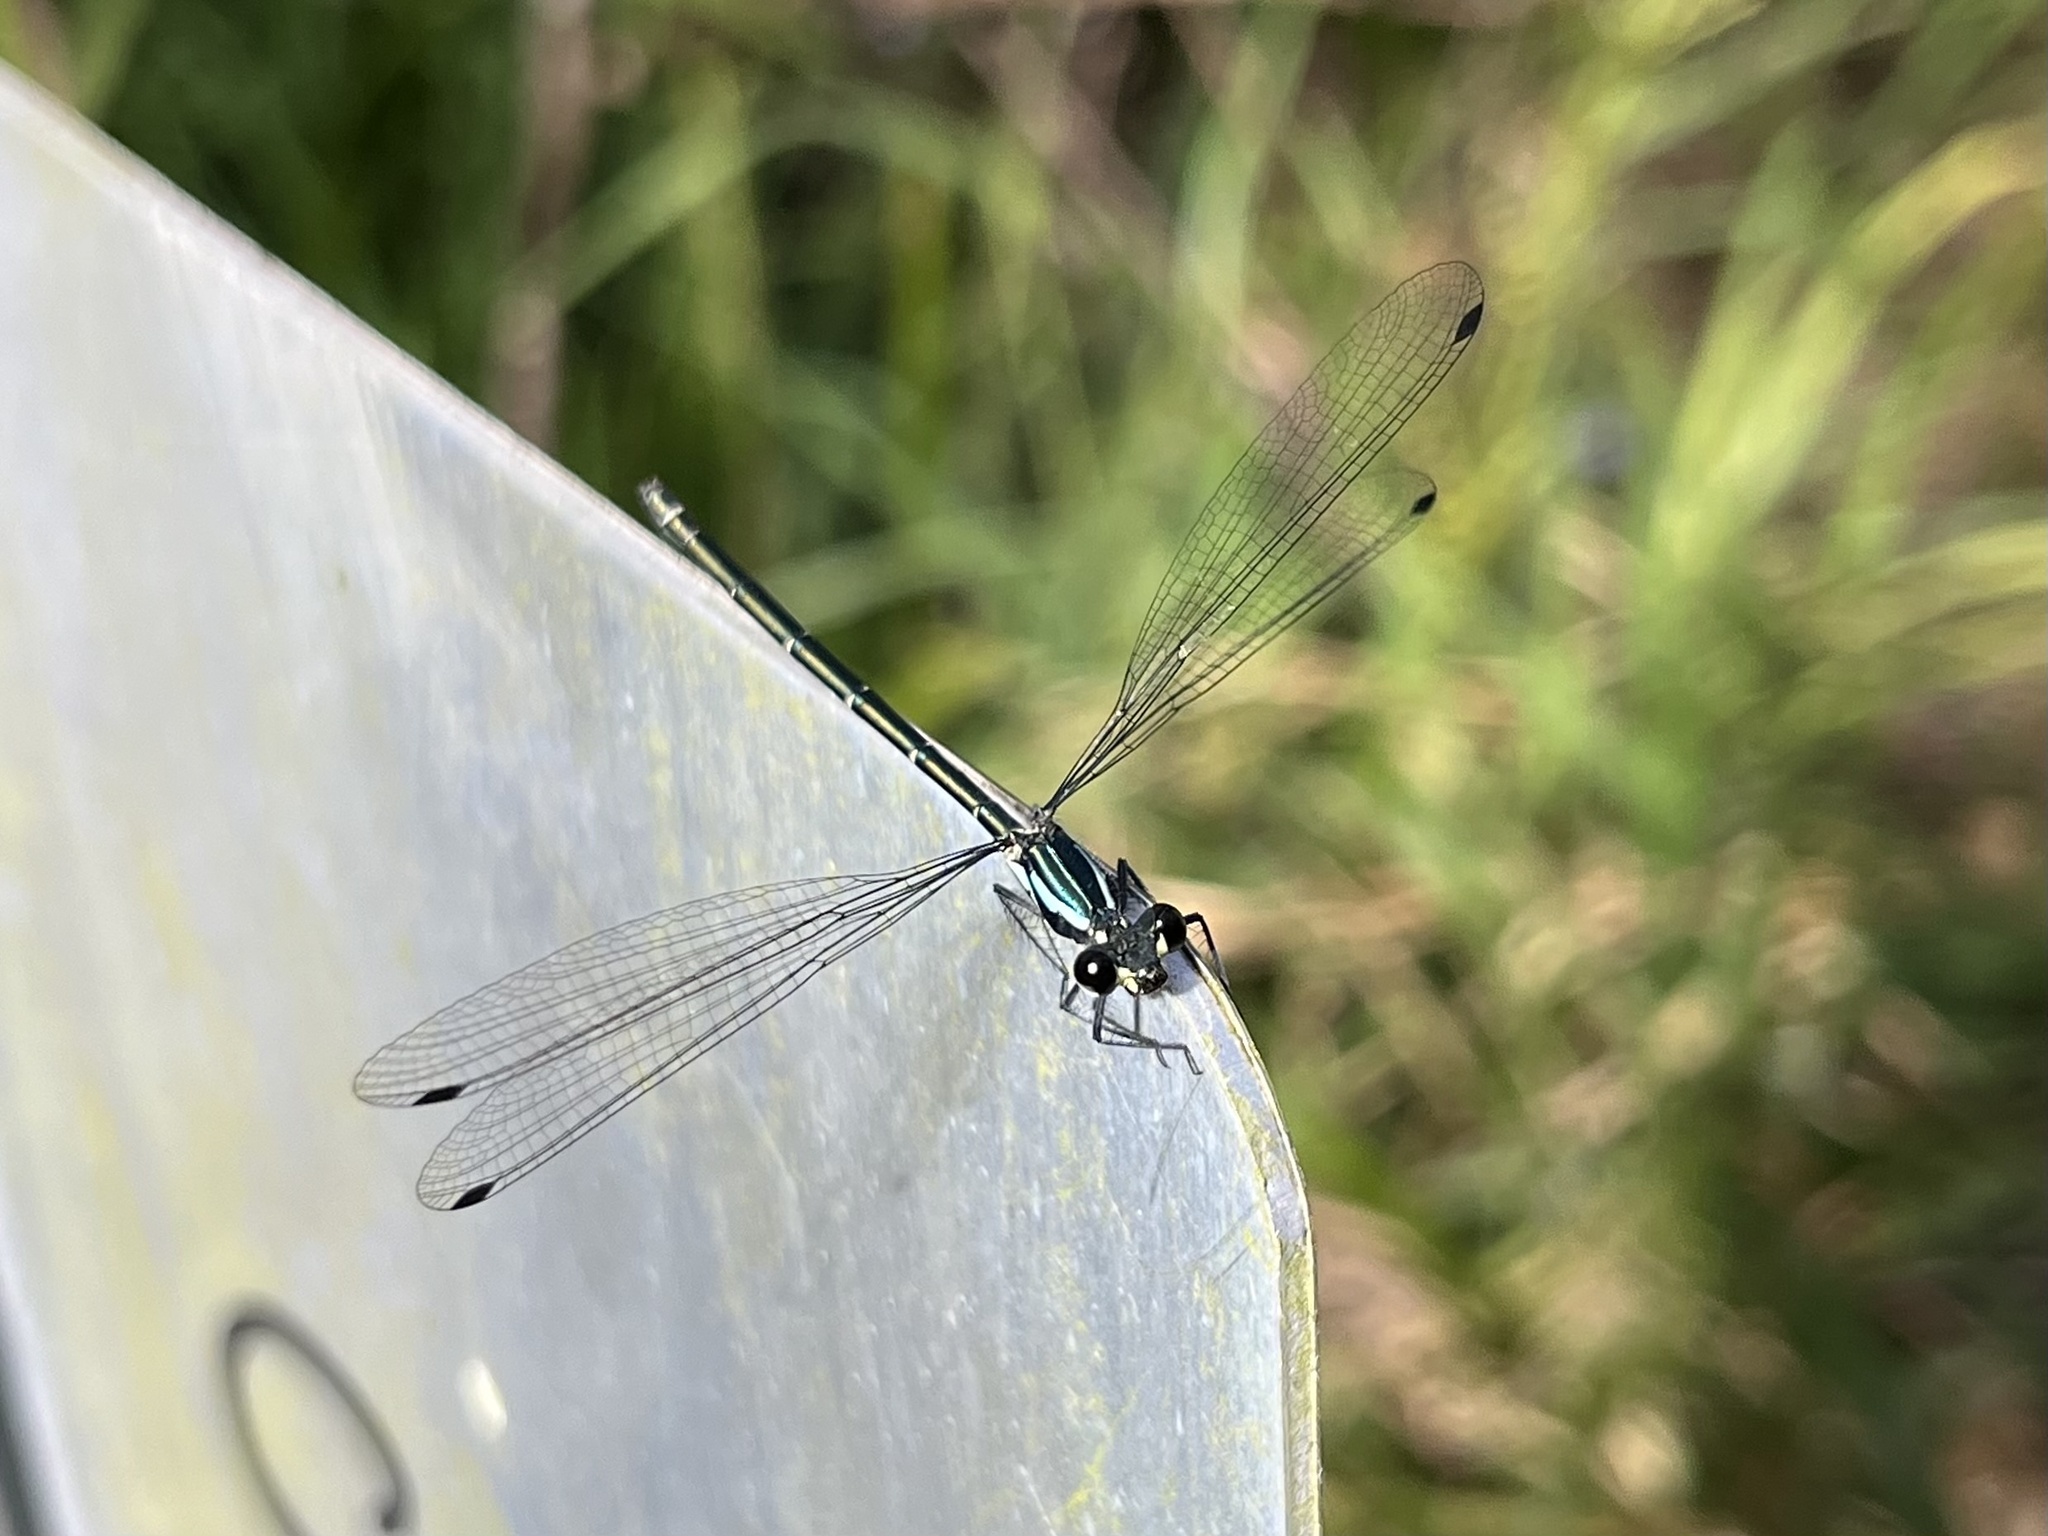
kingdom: Animalia
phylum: Arthropoda
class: Insecta
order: Odonata
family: Argiolestidae
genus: Austroargiolestes
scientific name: Austroargiolestes icteromelas
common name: Common flatwing
